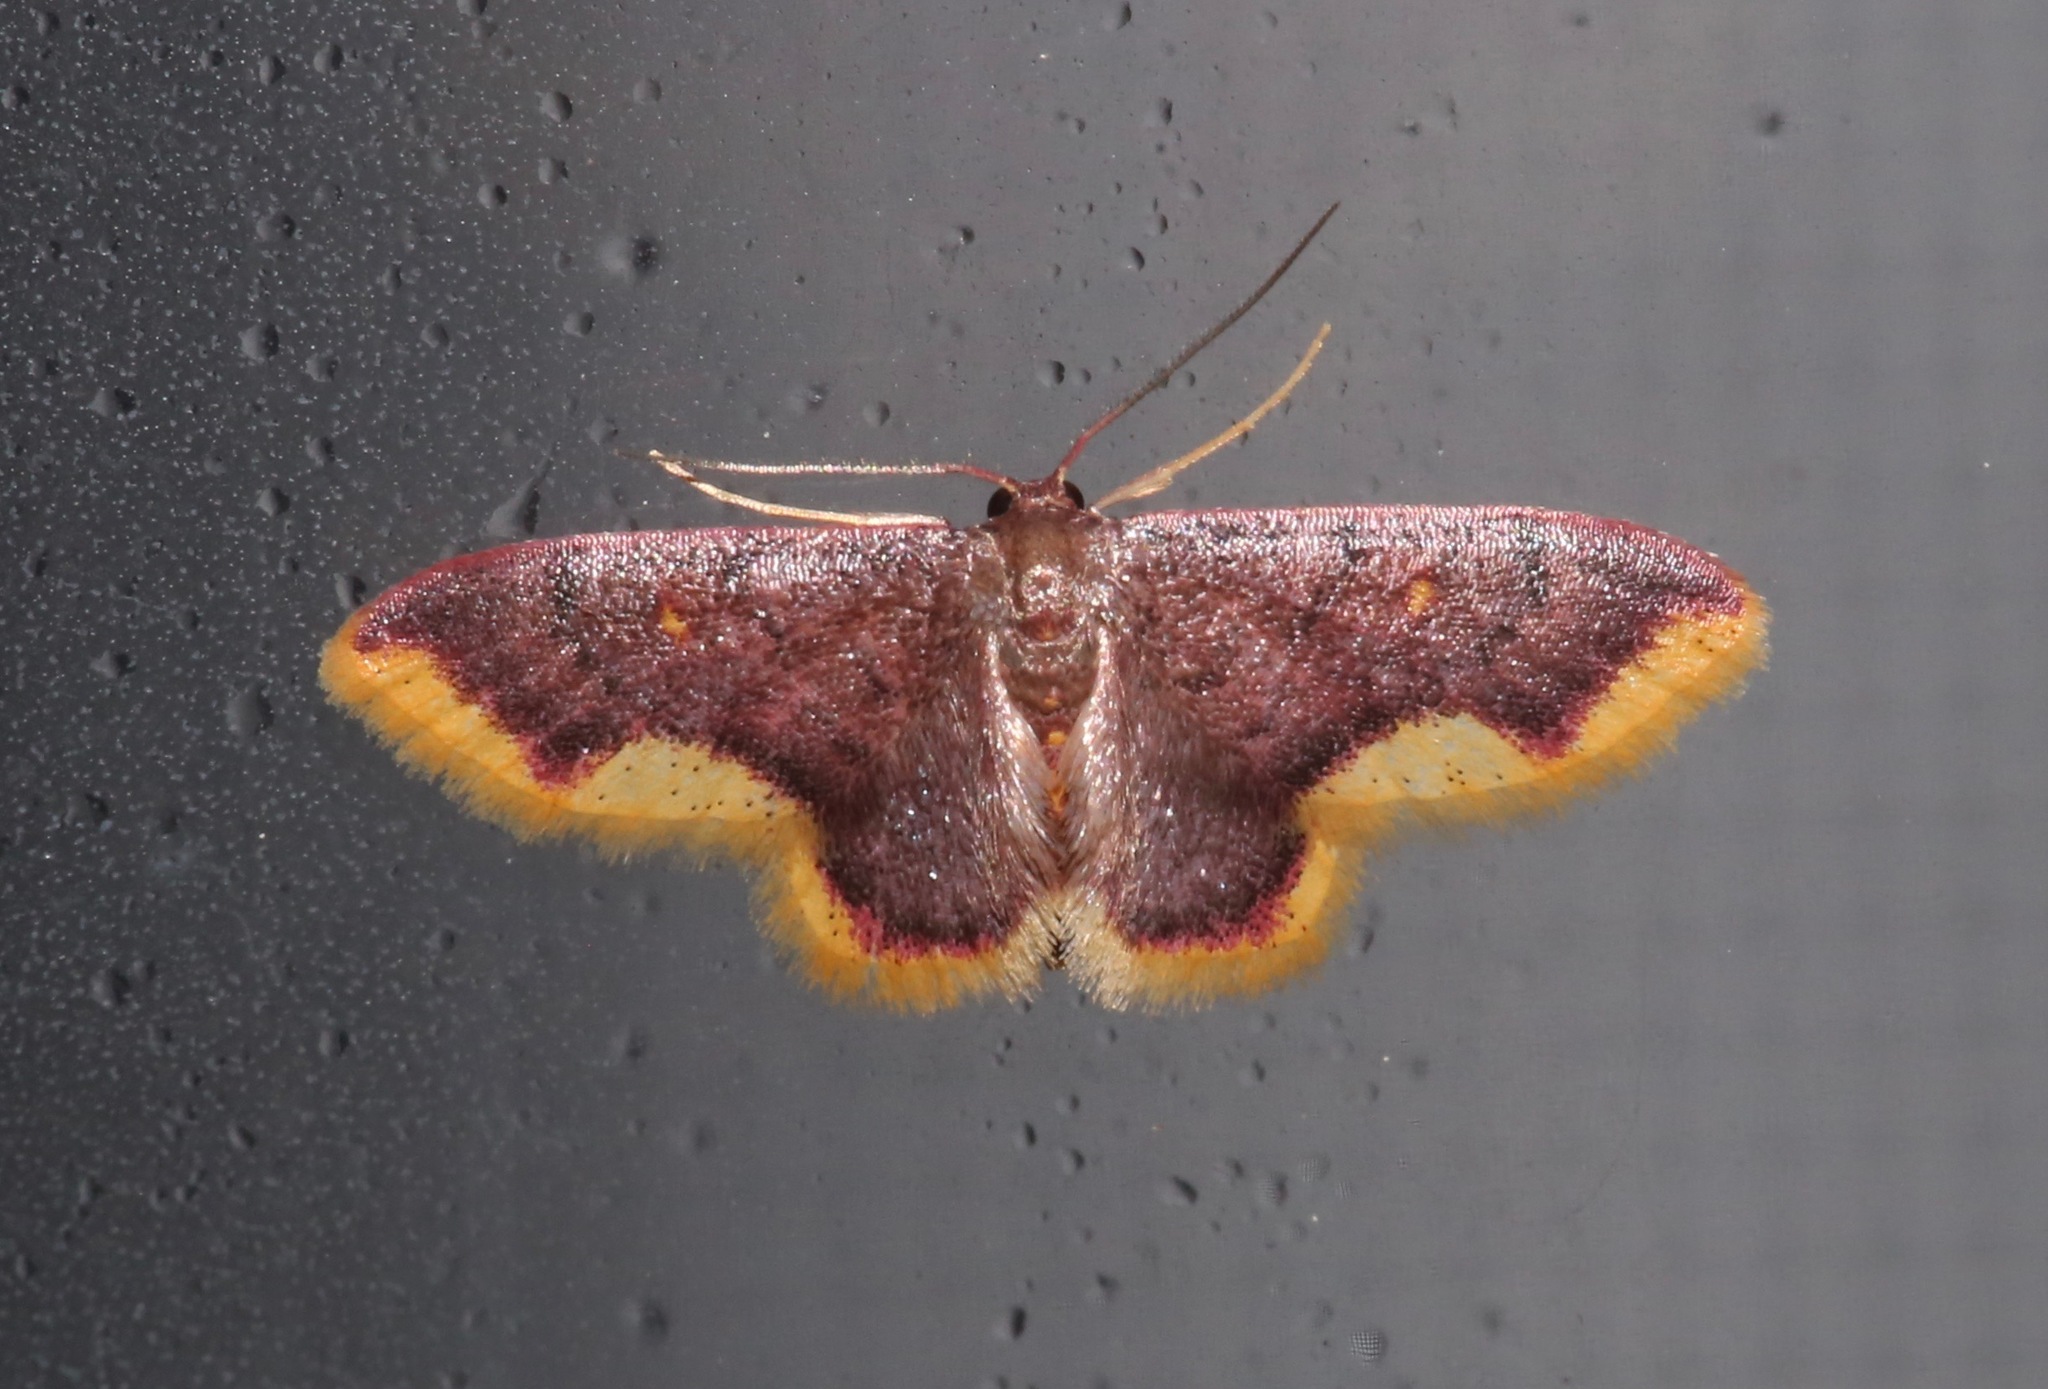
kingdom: Animalia
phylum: Arthropoda
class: Insecta
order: Lepidoptera
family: Geometridae
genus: Lophosis
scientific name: Lophosis labeculata
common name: Stained lophosis moth
